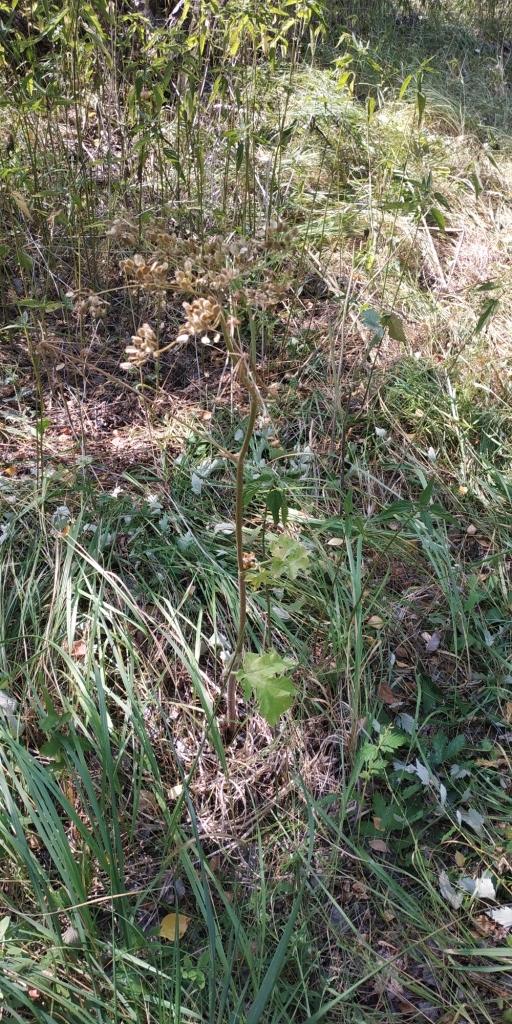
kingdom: Plantae
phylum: Tracheophyta
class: Magnoliopsida
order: Apiales
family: Apiaceae
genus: Heracleum
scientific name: Heracleum sphondylium
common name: Hogweed
